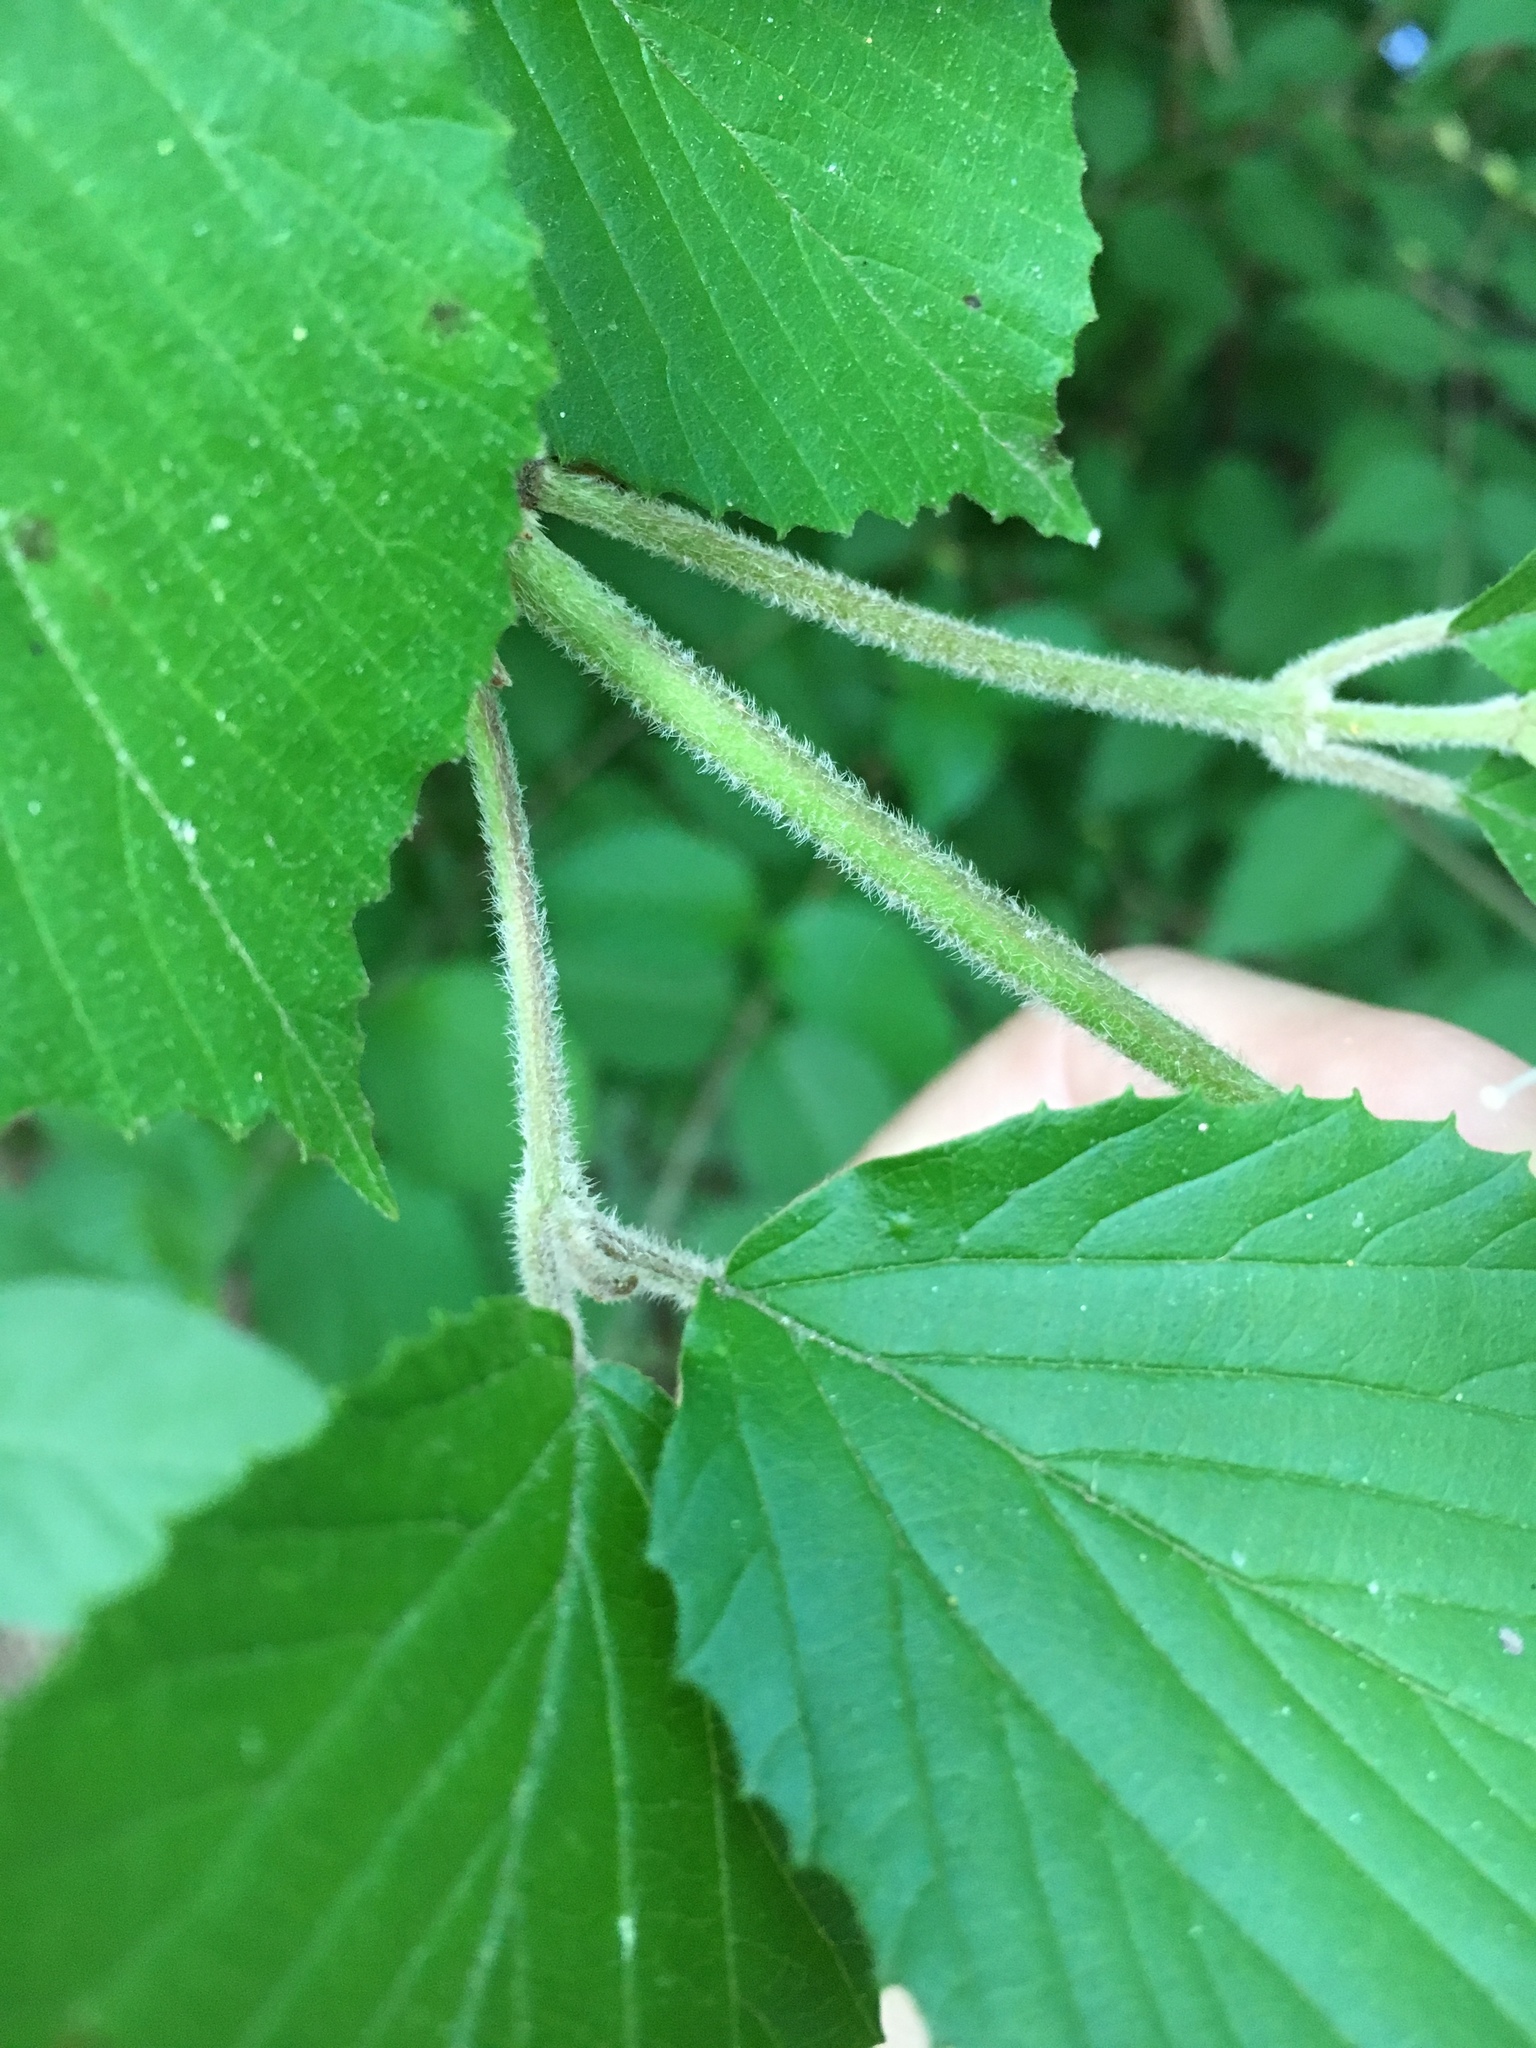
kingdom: Plantae
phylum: Tracheophyta
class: Magnoliopsida
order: Dipsacales
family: Viburnaceae
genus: Viburnum
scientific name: Viburnum dilatatum
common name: Linden arrowwood
